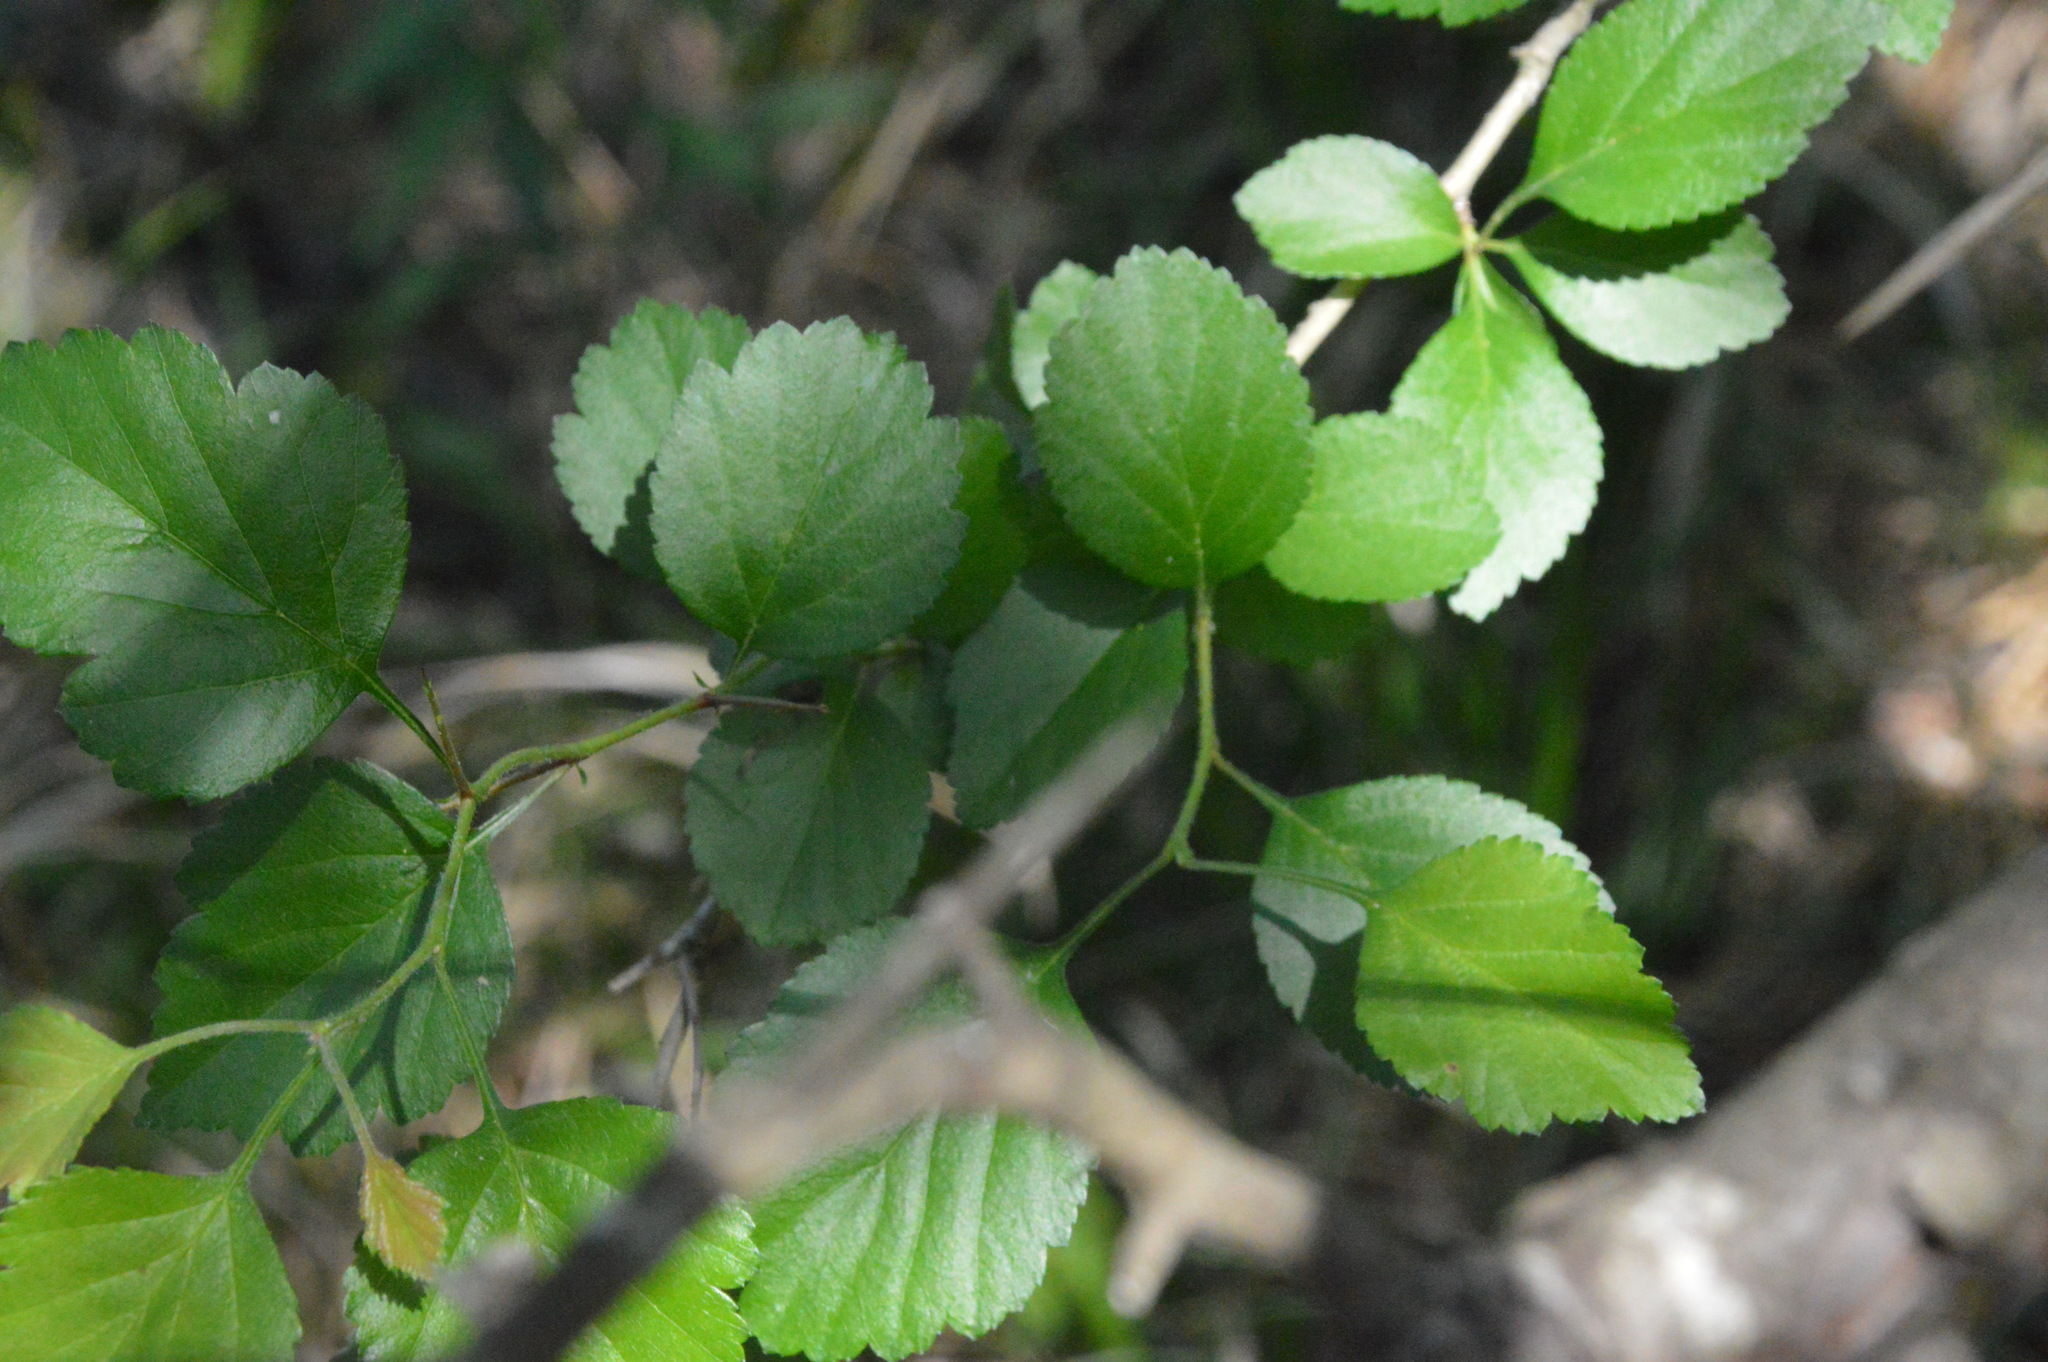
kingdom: Plantae
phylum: Tracheophyta
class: Magnoliopsida
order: Rosales
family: Rosaceae
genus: Crataegus
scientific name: Crataegus viridis
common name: Southernthorn
